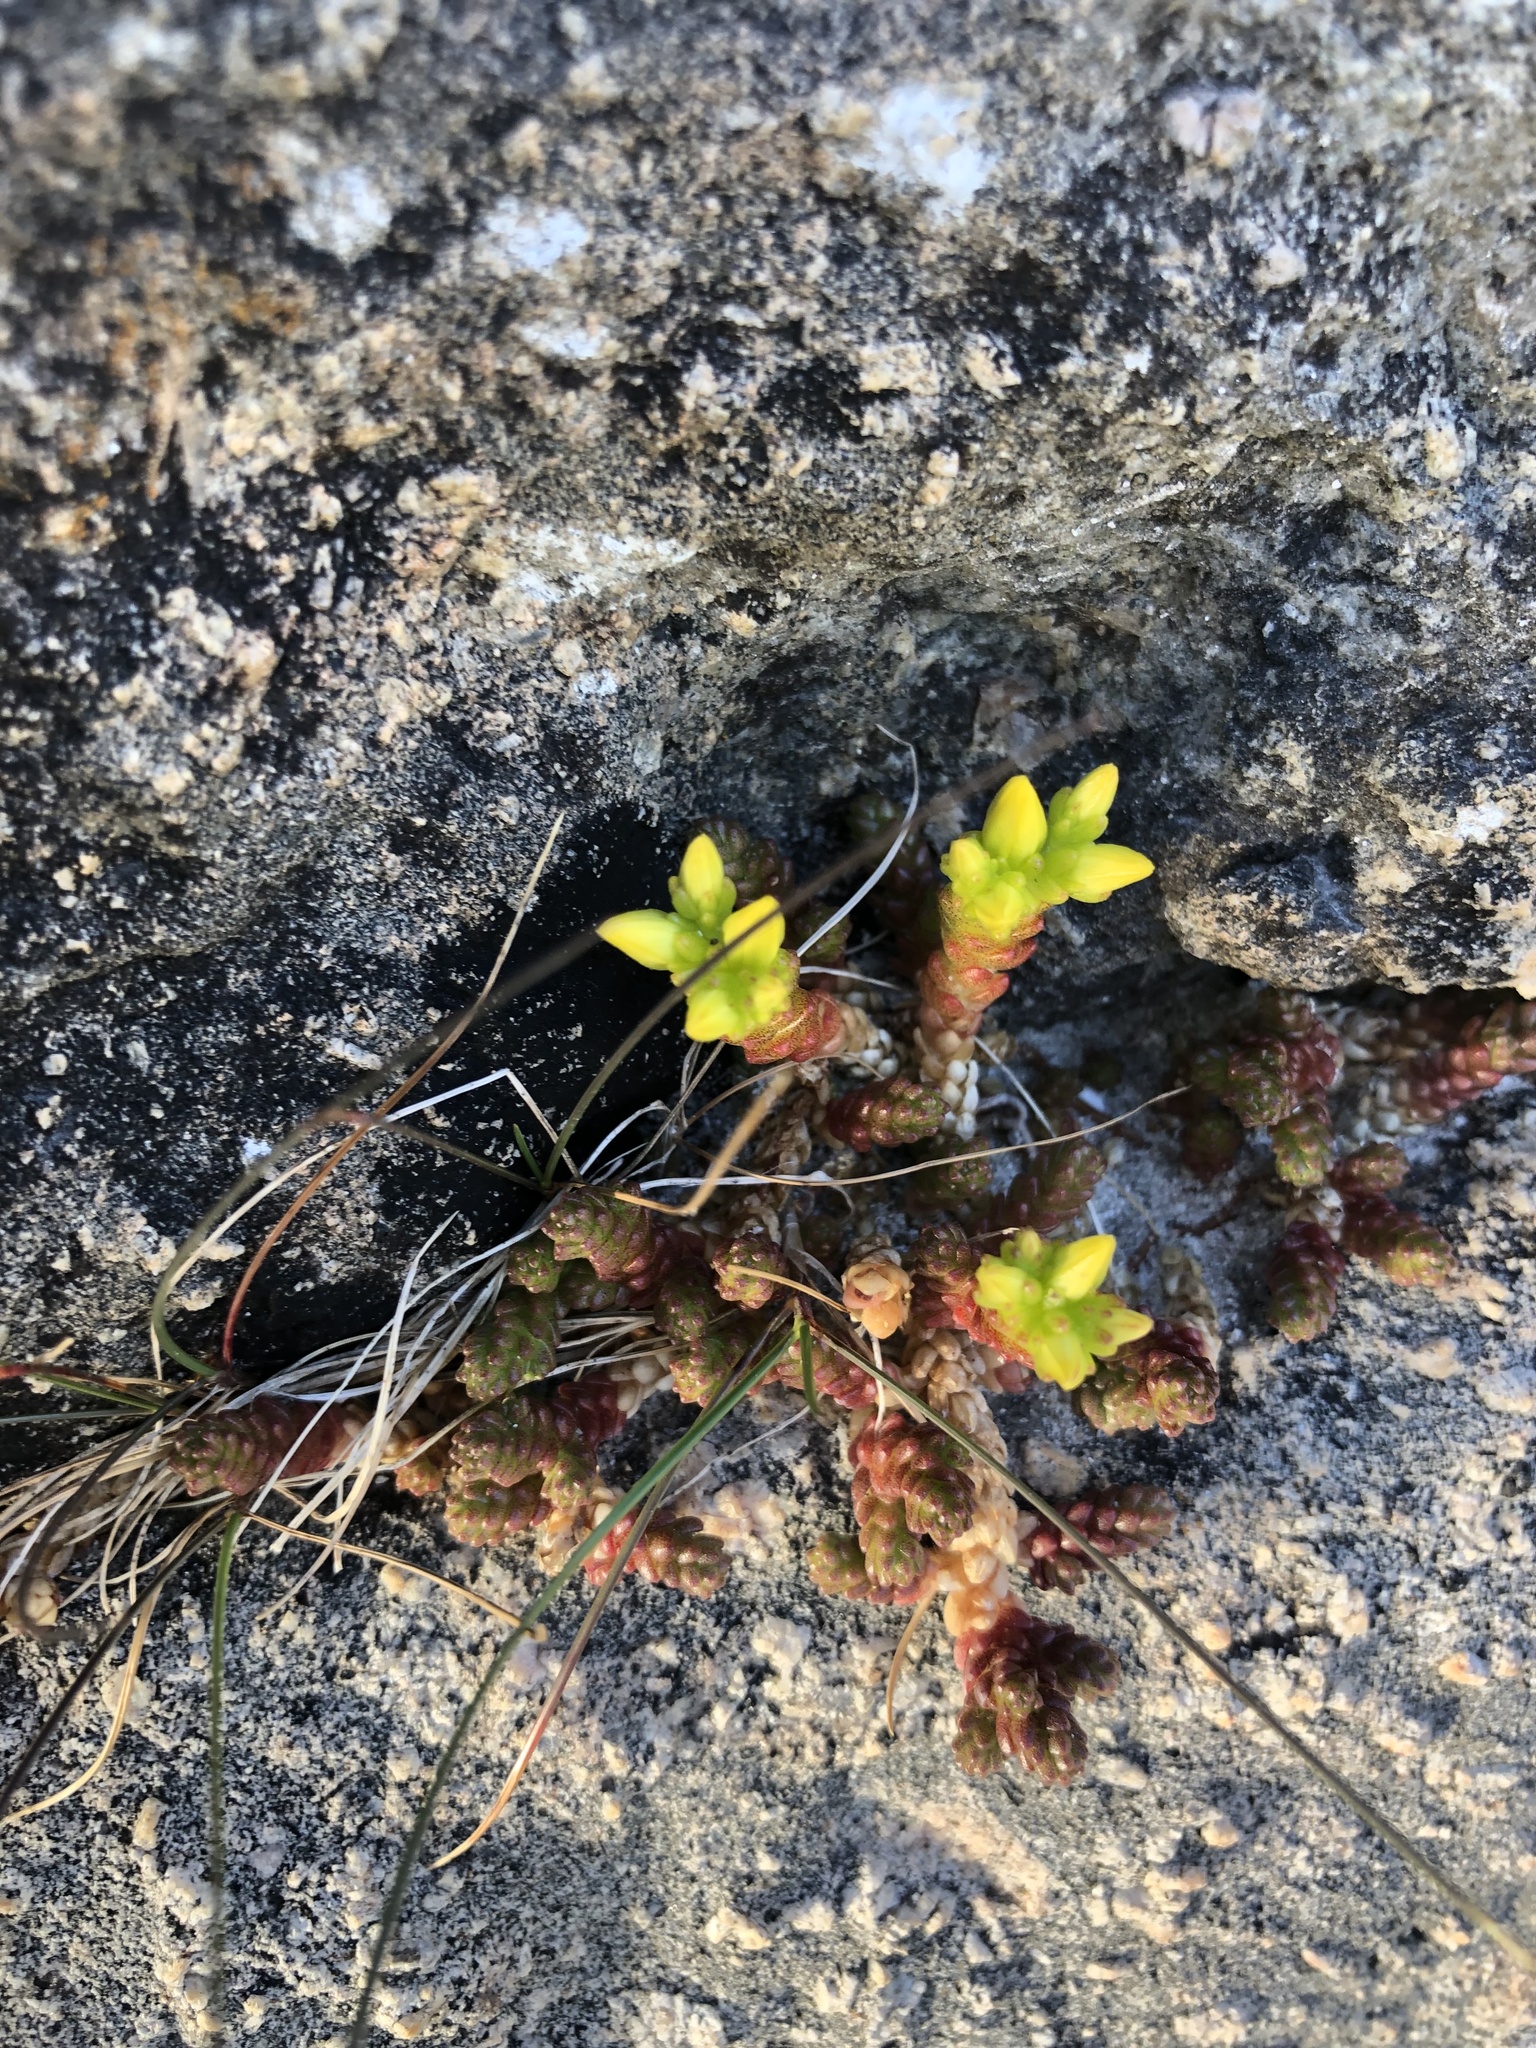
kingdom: Plantae
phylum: Tracheophyta
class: Magnoliopsida
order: Saxifragales
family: Crassulaceae
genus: Sedum
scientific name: Sedum acre
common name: Biting stonecrop
